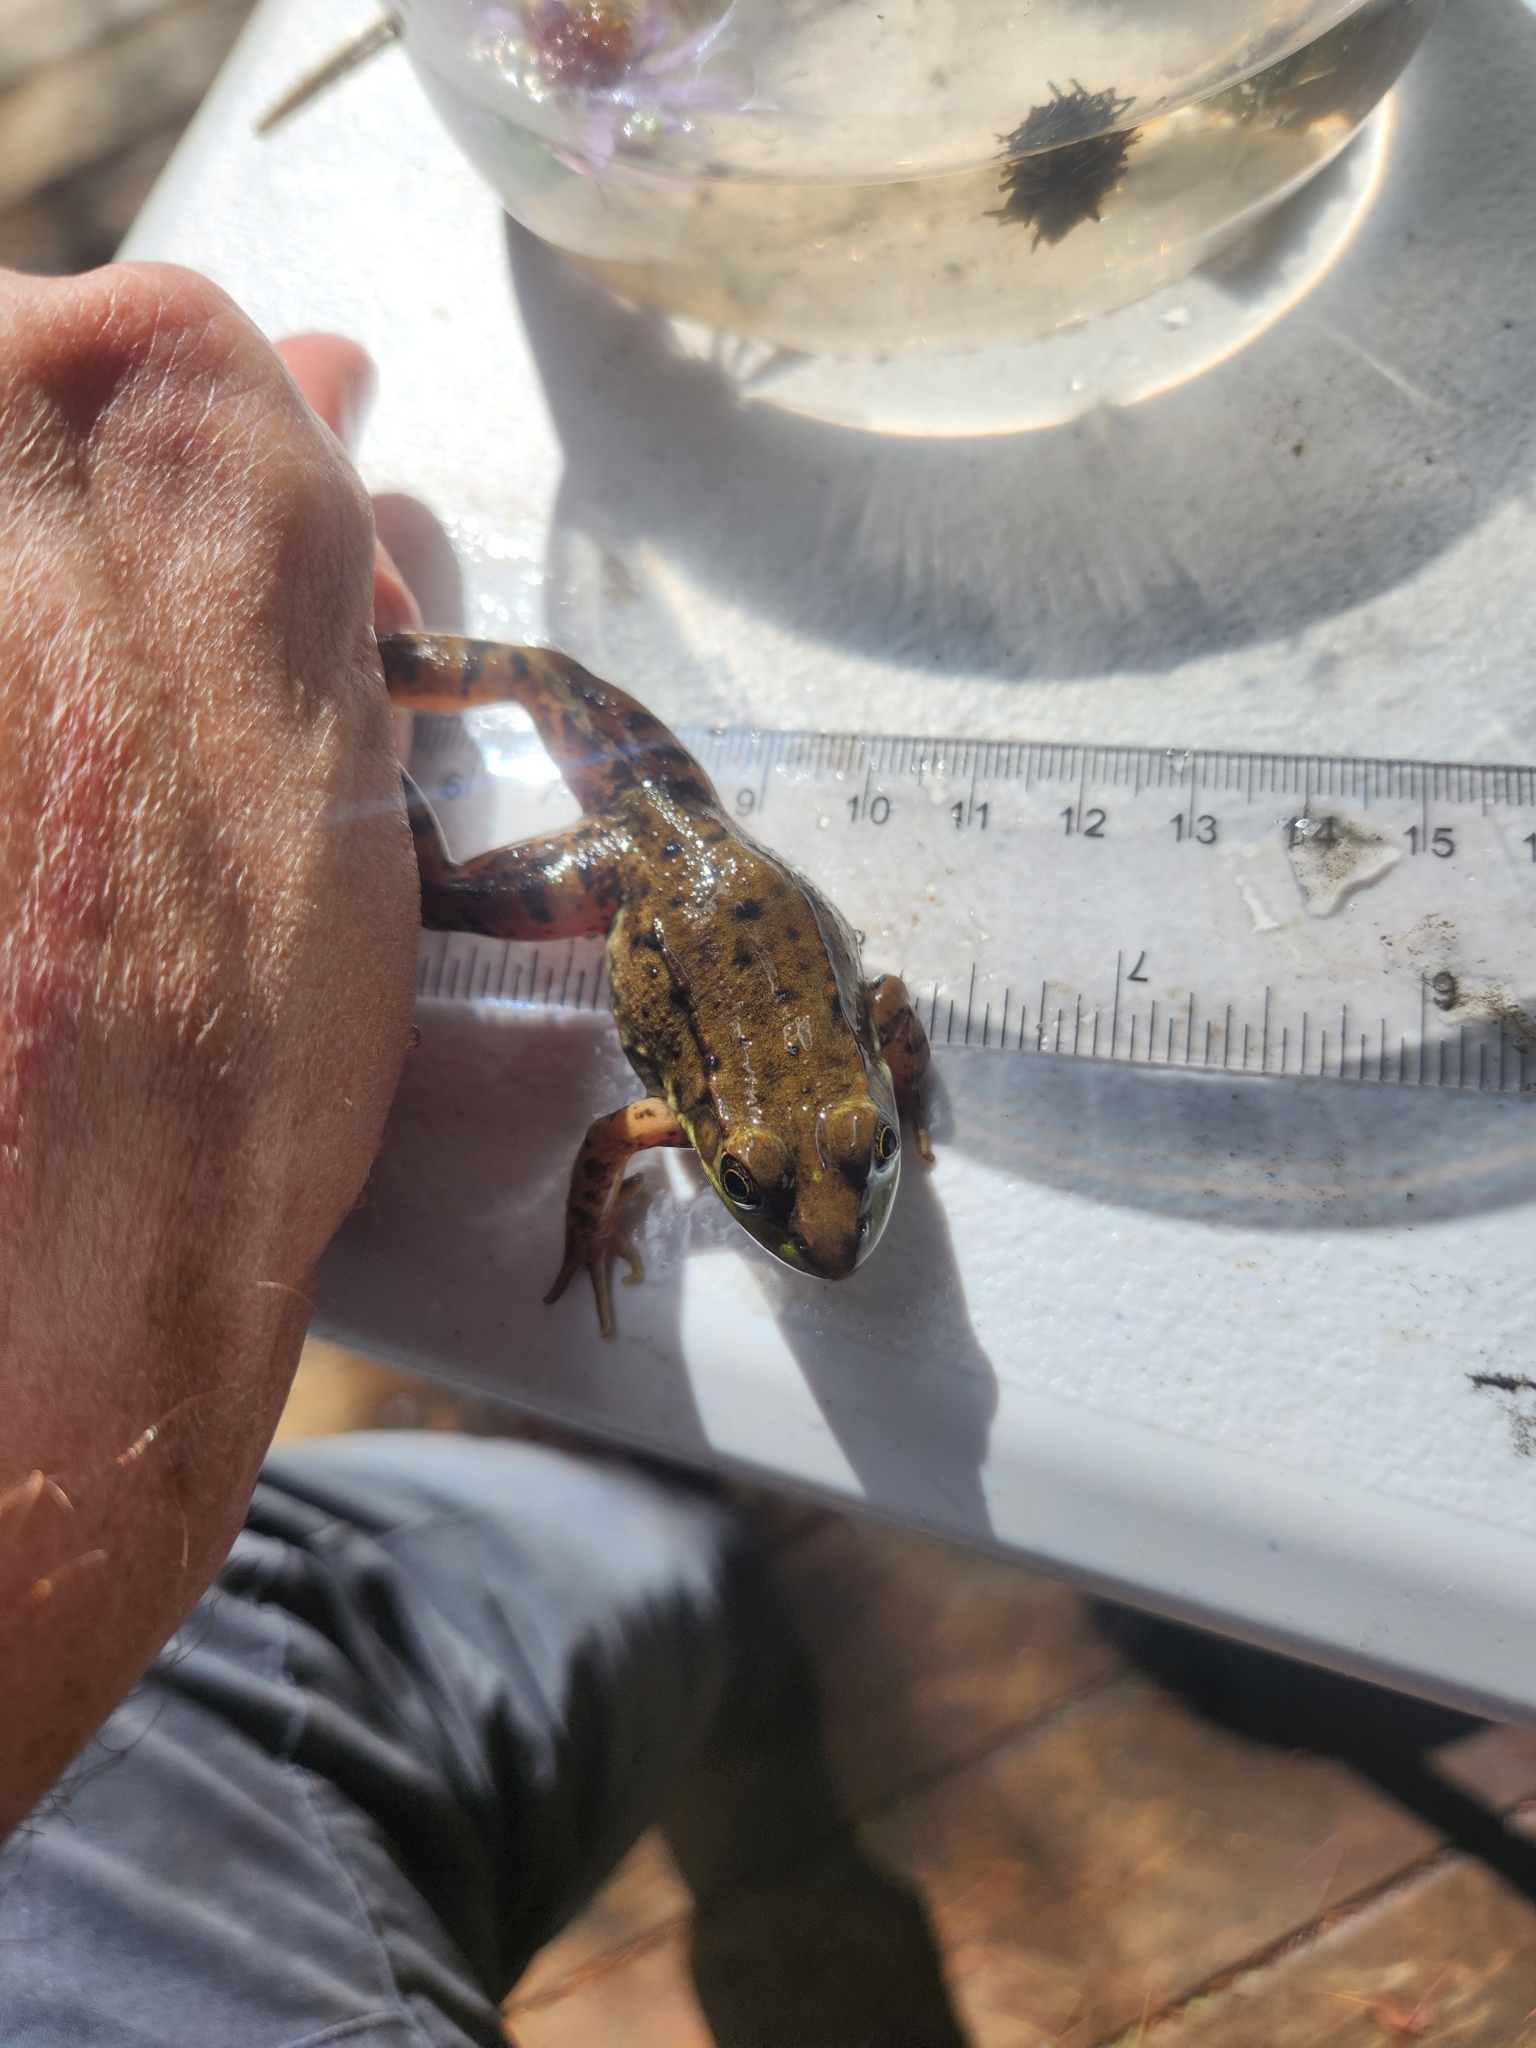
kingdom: Animalia
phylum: Chordata
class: Amphibia
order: Anura
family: Ranidae
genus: Lithobates
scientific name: Lithobates clamitans
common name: Green frog
